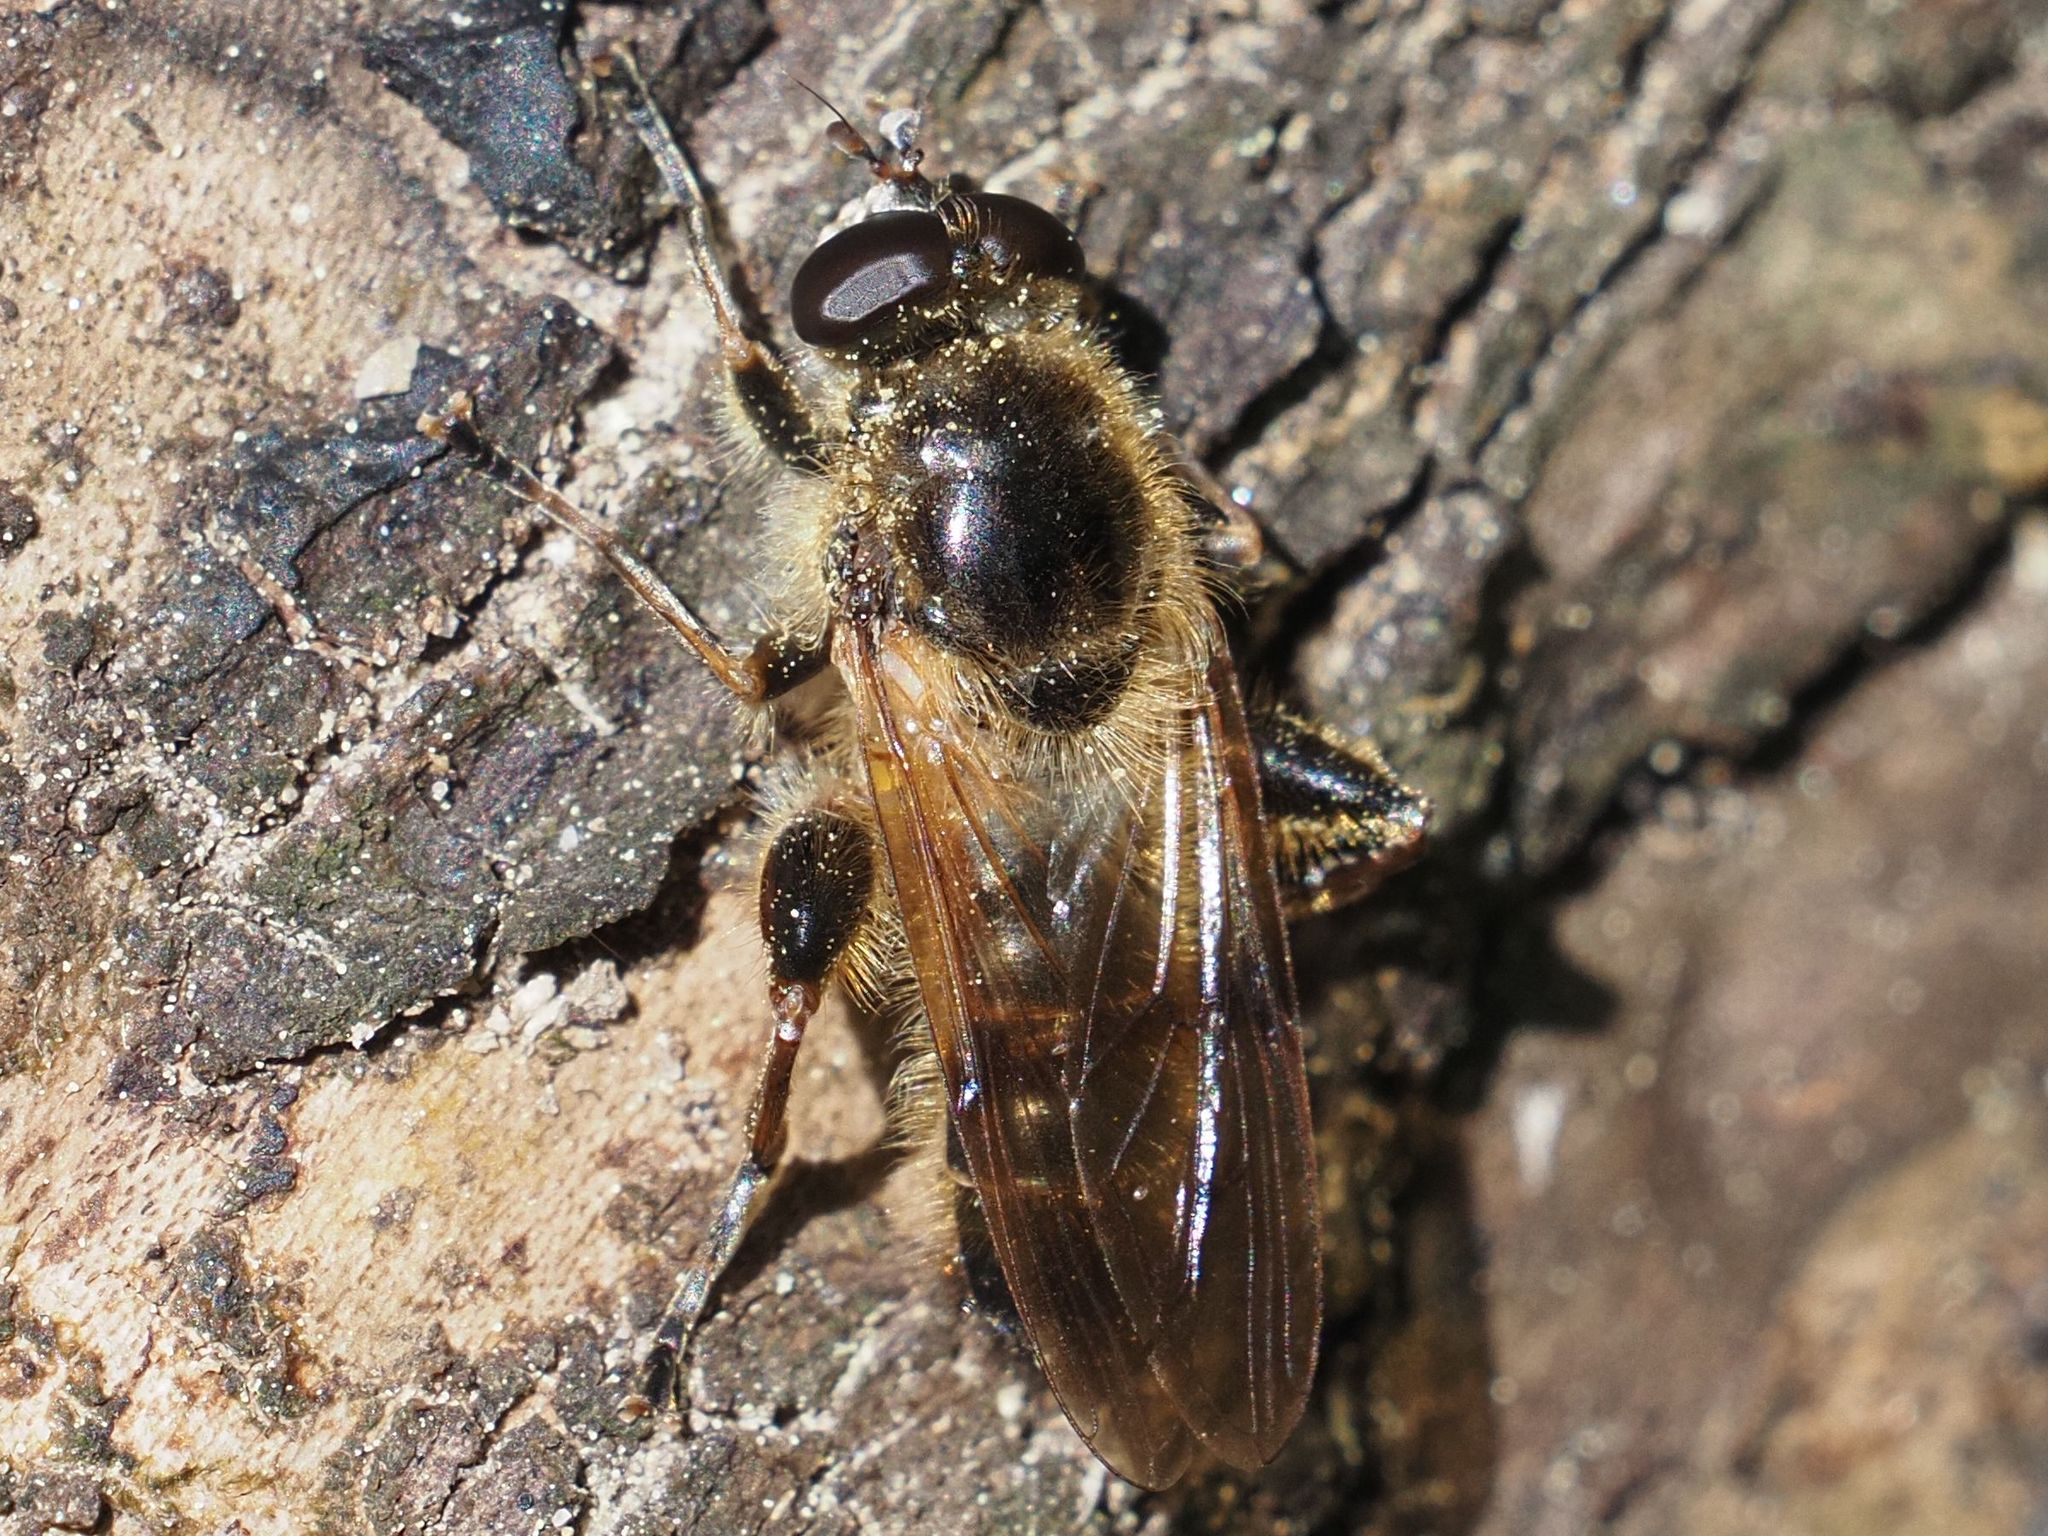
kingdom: Animalia
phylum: Arthropoda
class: Insecta
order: Diptera
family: Syrphidae
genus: Brachypalpus
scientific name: Brachypalpus valgus
